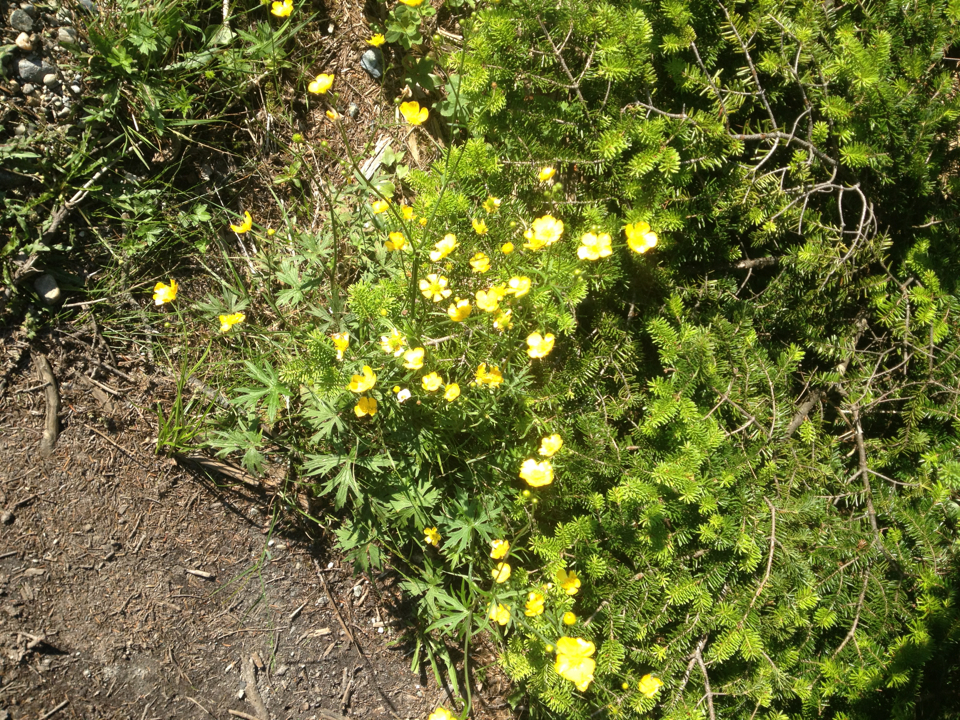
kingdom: Plantae
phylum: Tracheophyta
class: Magnoliopsida
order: Ranunculales
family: Ranunculaceae
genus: Ranunculus
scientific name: Ranunculus acris
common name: Meadow buttercup
